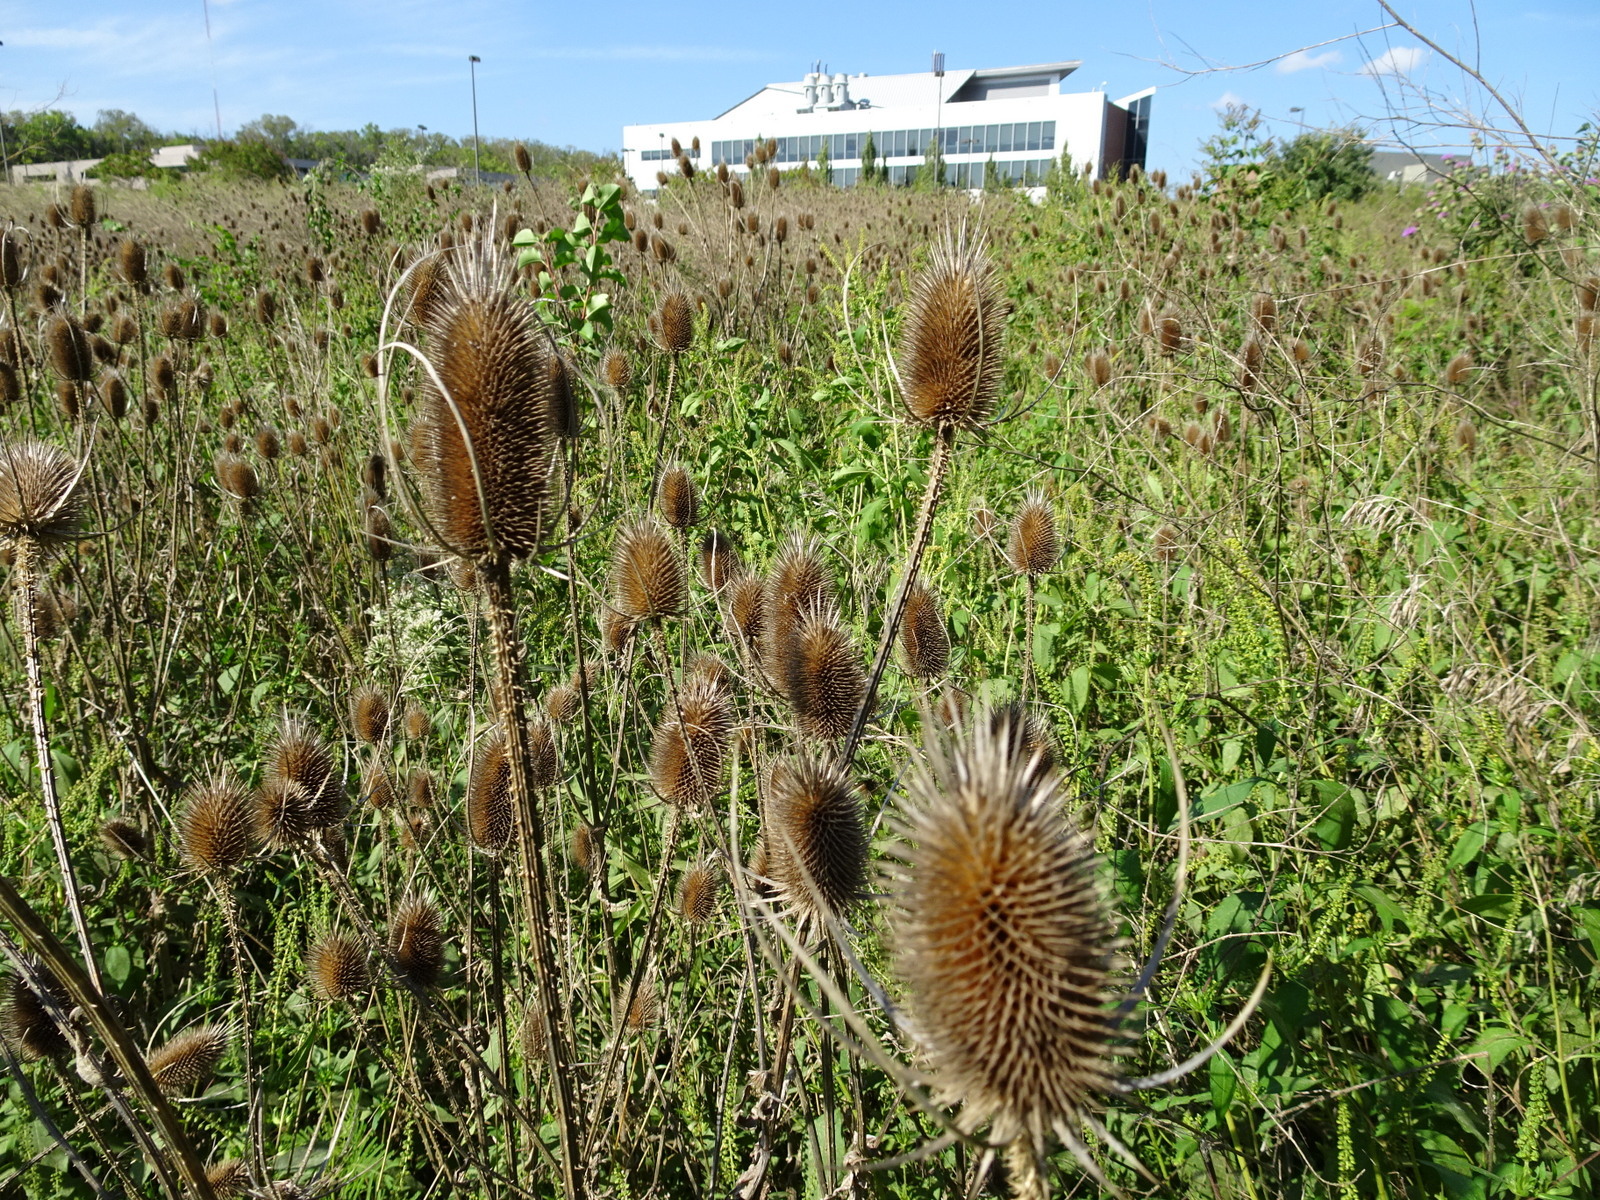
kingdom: Plantae
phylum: Tracheophyta
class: Magnoliopsida
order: Dipsacales
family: Caprifoliaceae
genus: Dipsacus
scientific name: Dipsacus fullonum
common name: Teasel
